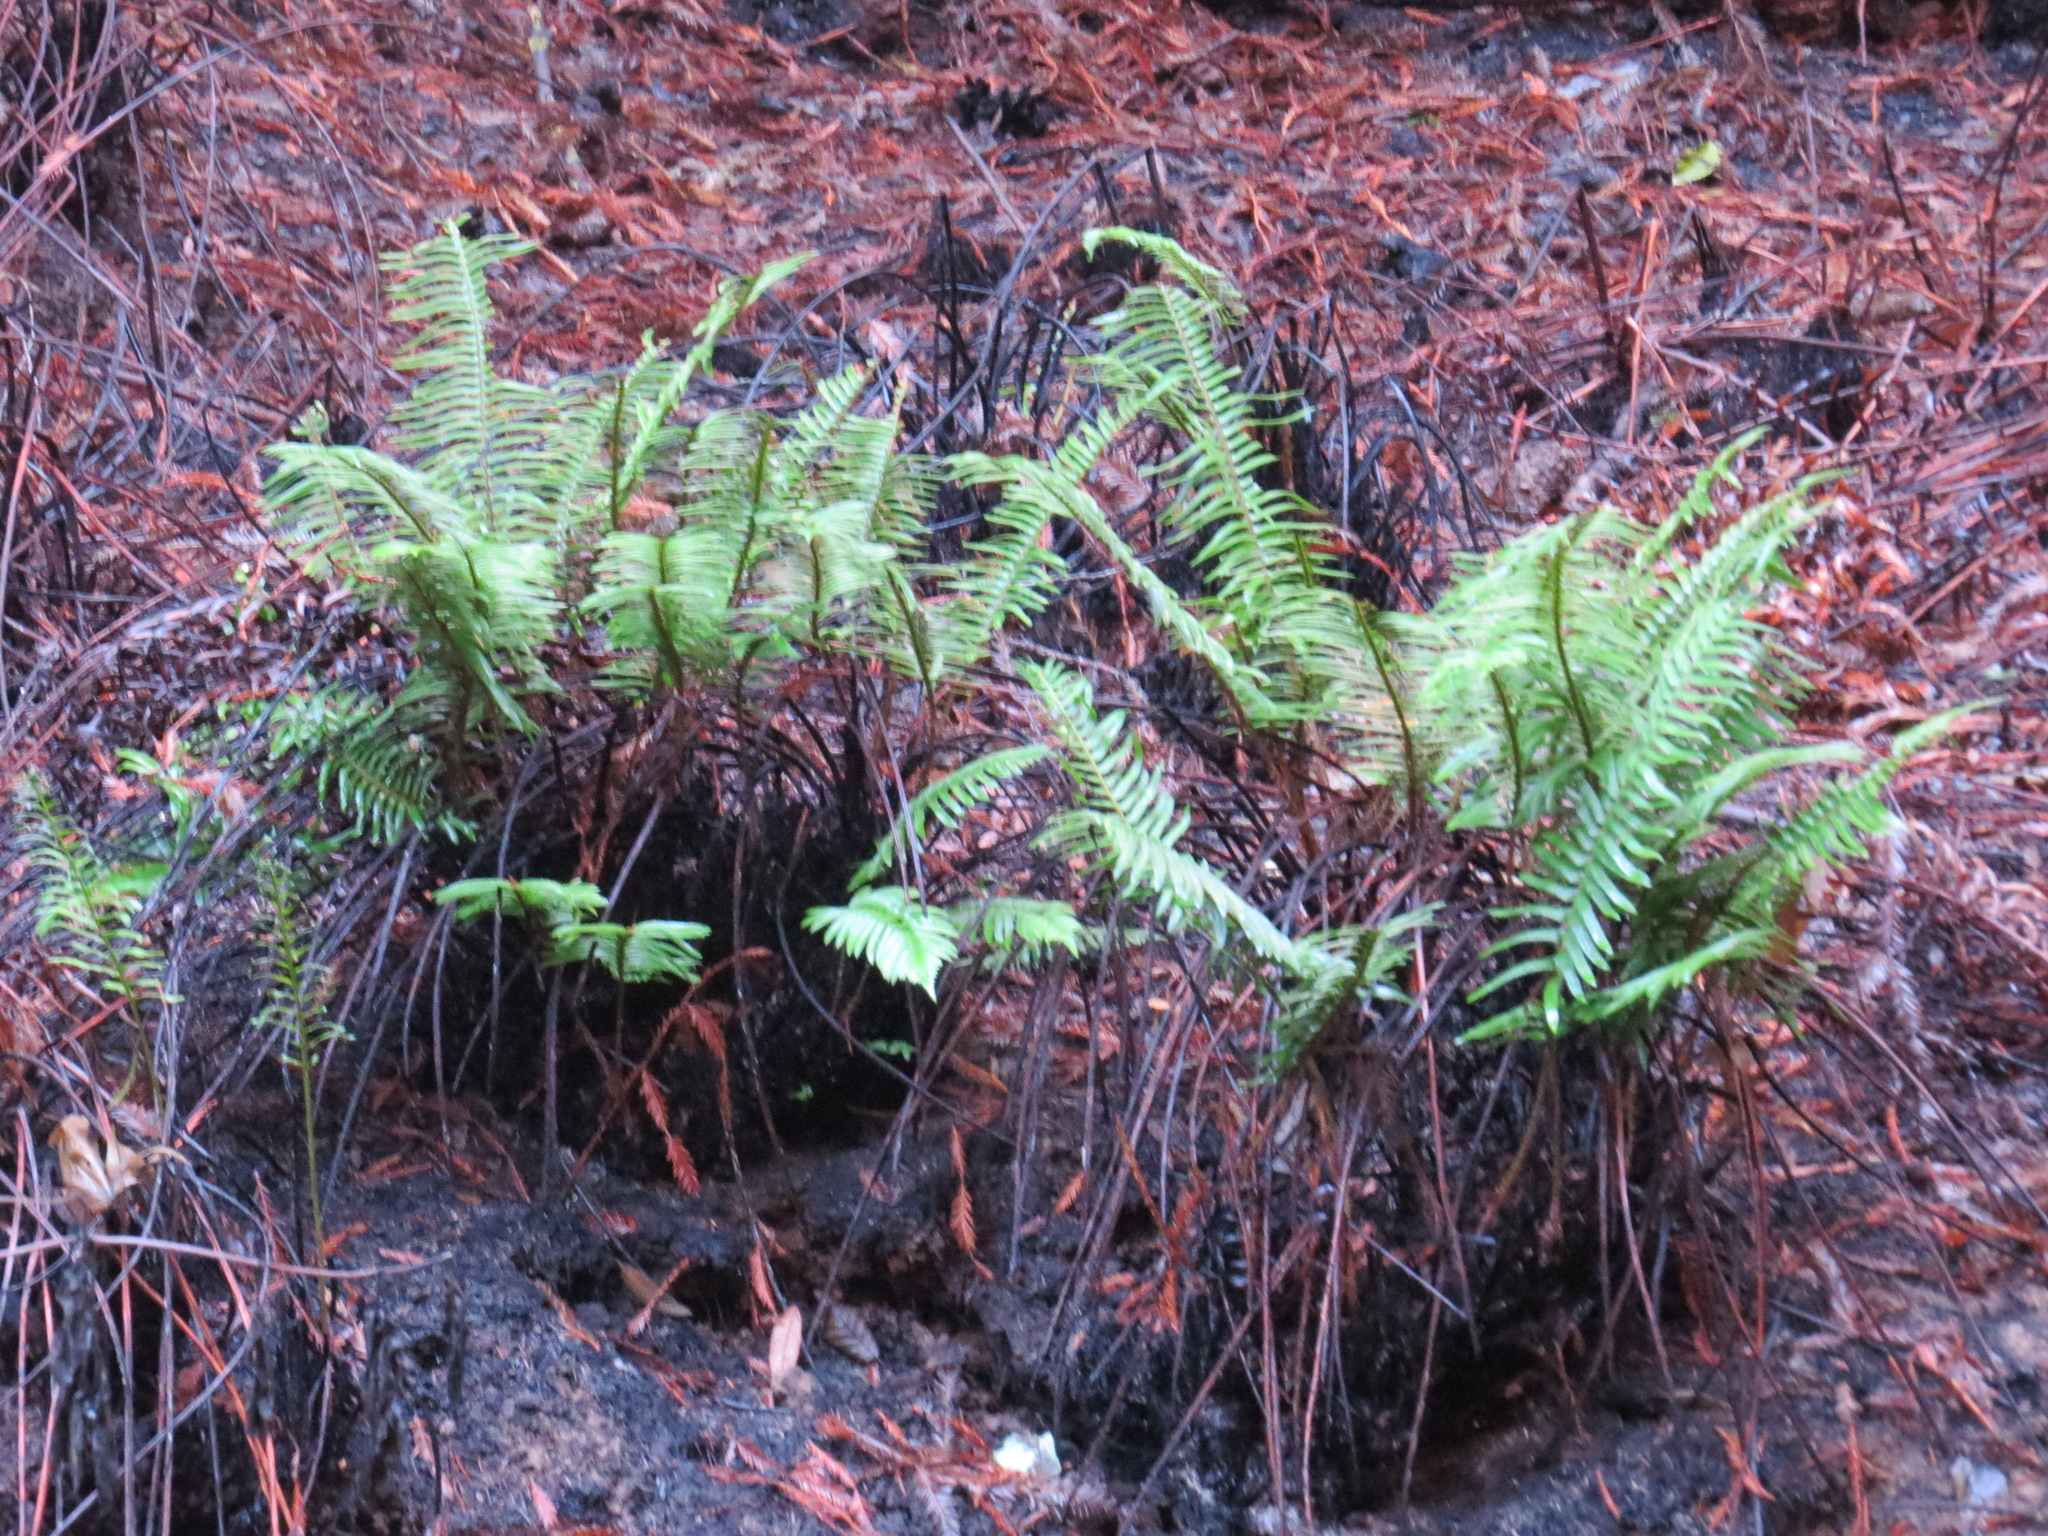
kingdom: Plantae
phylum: Tracheophyta
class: Polypodiopsida
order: Polypodiales
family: Dryopteridaceae
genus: Polystichum
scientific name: Polystichum munitum
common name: Western sword-fern
